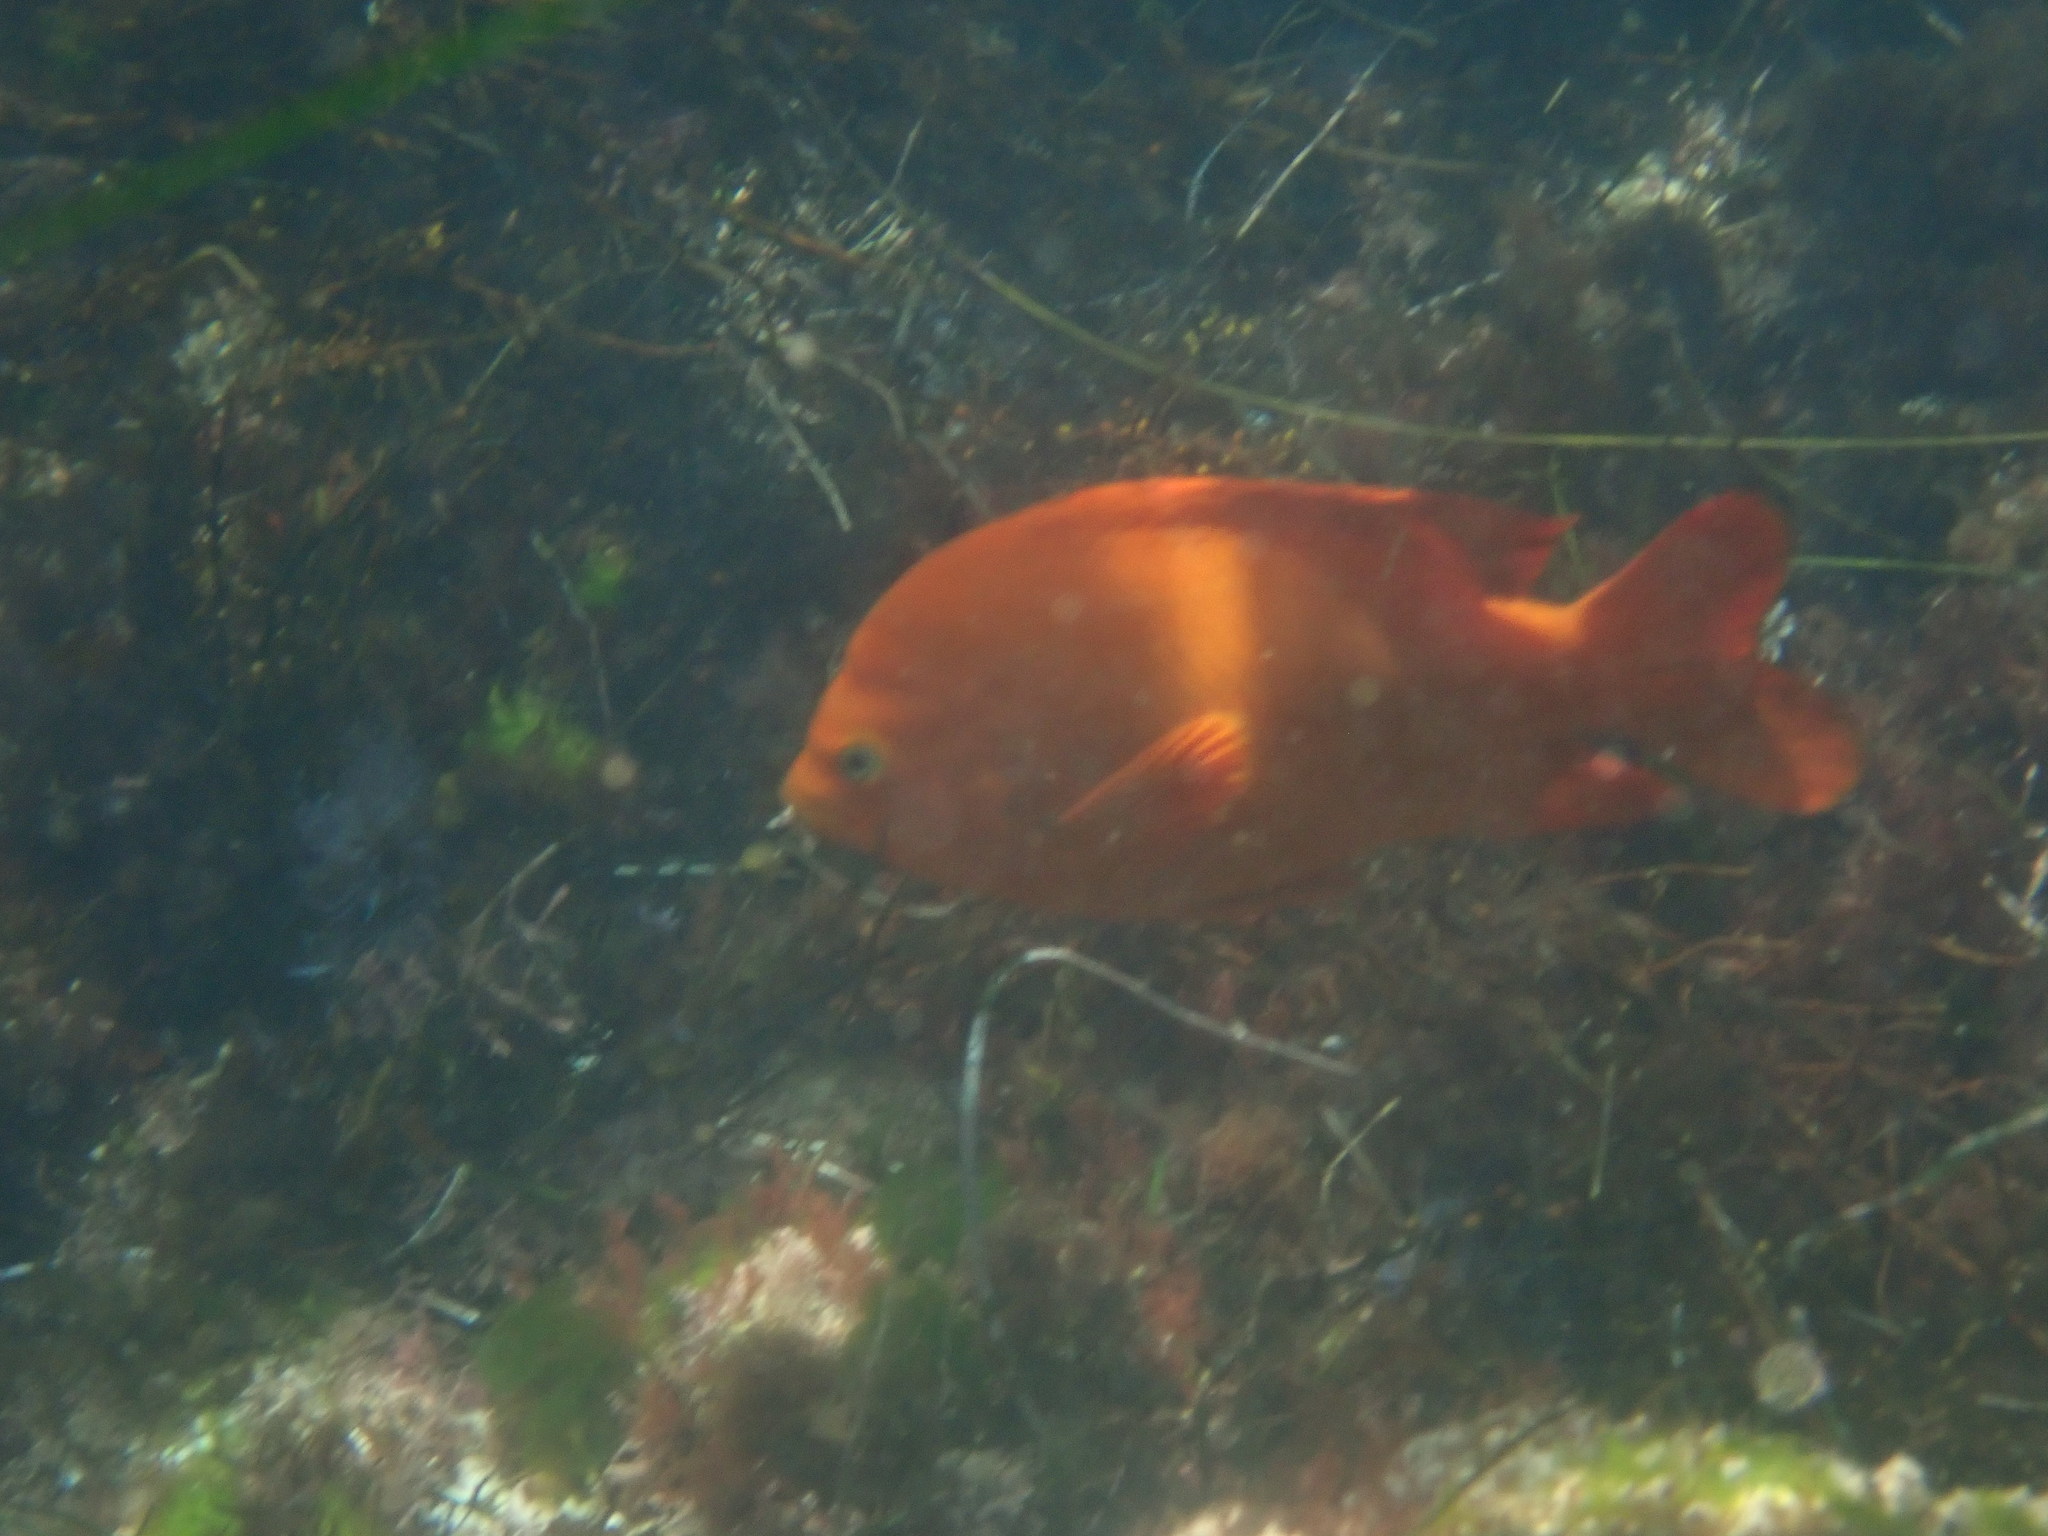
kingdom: Animalia
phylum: Chordata
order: Perciformes
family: Pomacentridae
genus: Hypsypops
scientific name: Hypsypops rubicundus
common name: Garibaldi
